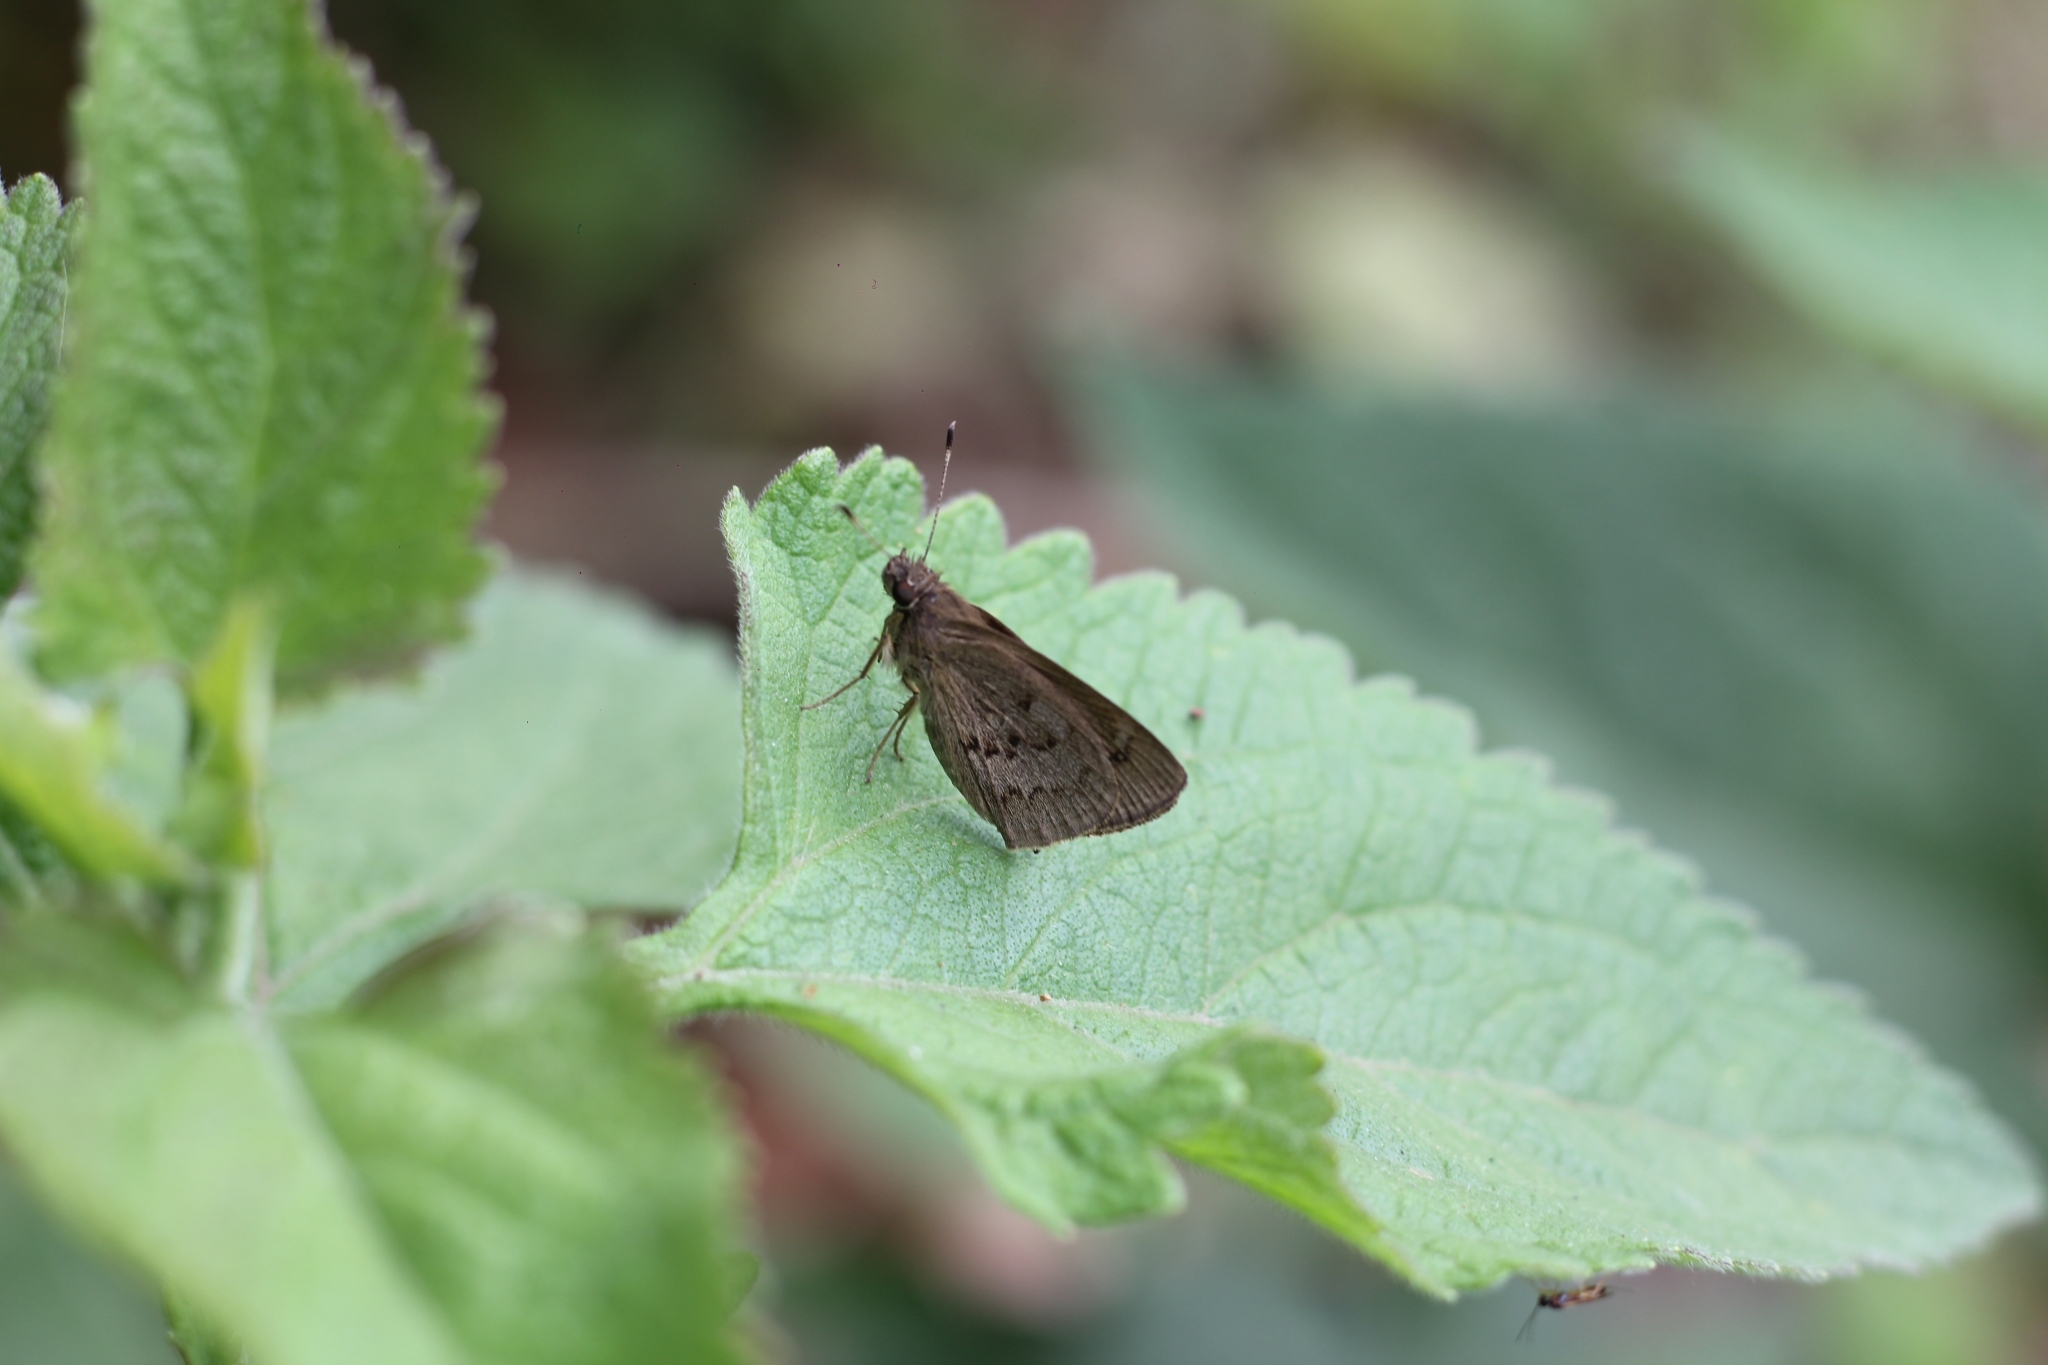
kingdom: Animalia
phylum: Arthropoda
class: Insecta
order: Lepidoptera
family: Hesperiidae
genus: Cymaenes
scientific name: Cymaenes gisca
